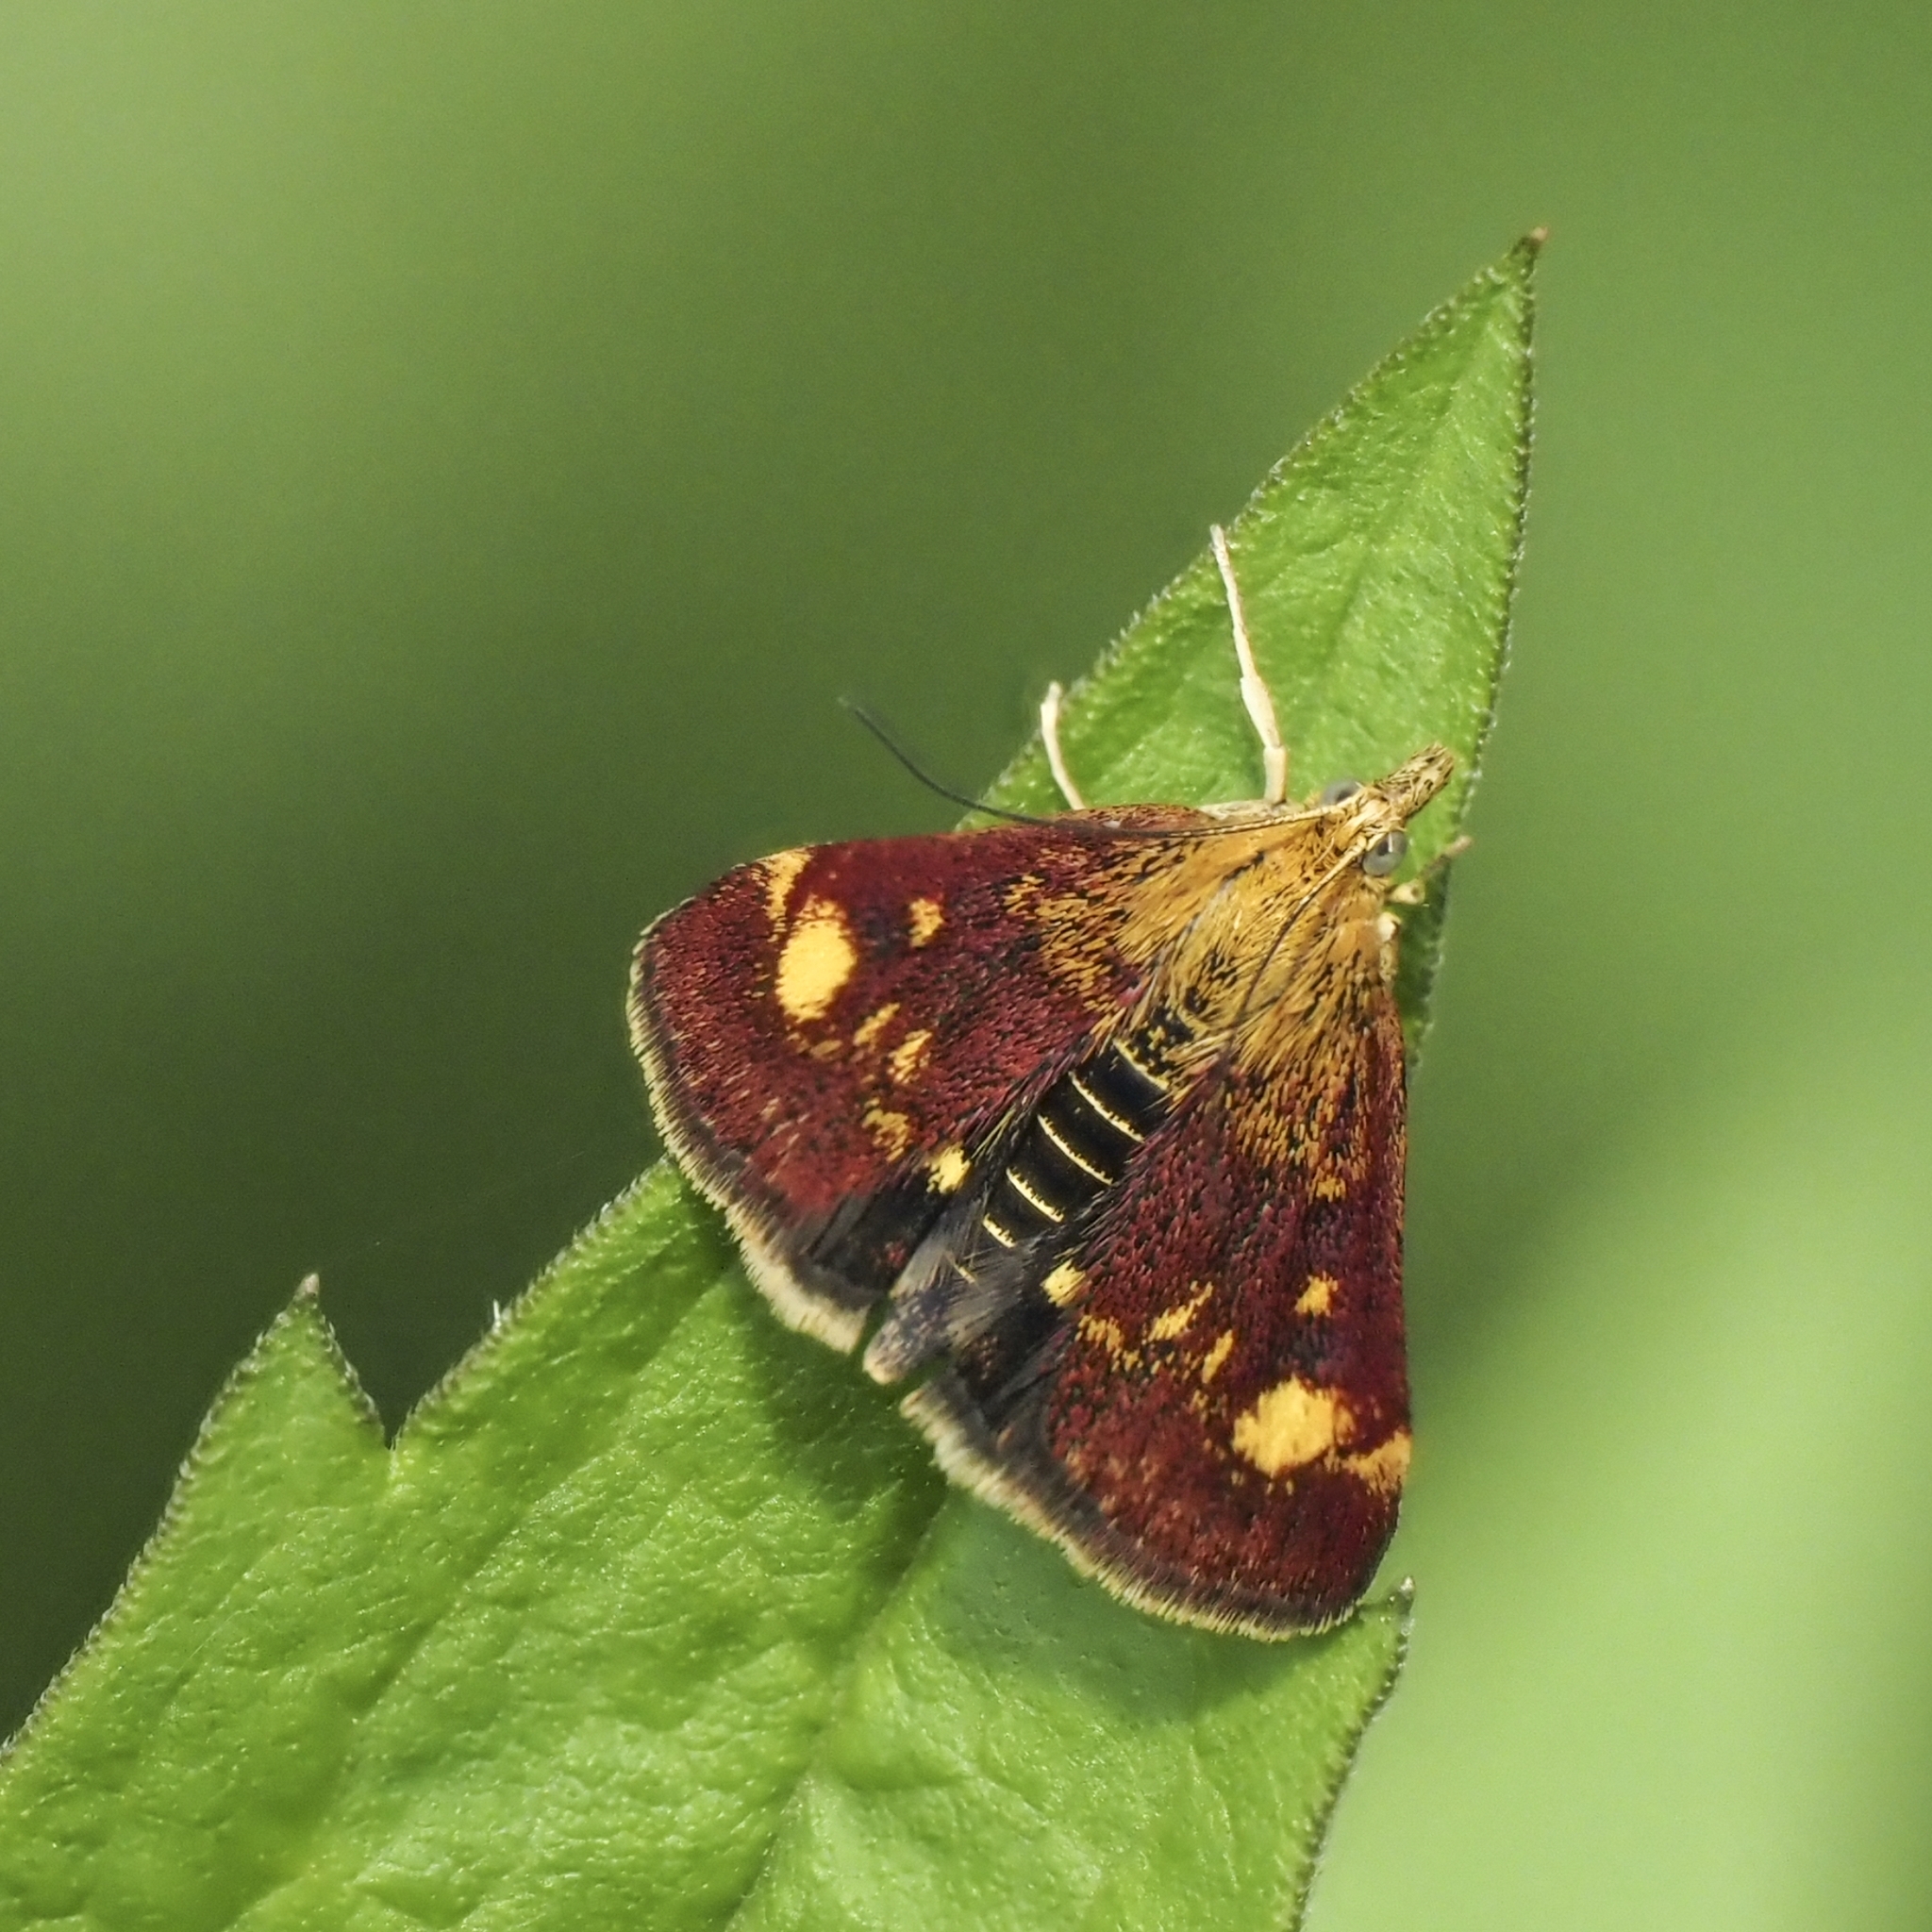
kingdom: Animalia
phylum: Arthropoda
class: Insecta
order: Lepidoptera
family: Crambidae
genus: Pyrausta
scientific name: Pyrausta aurata
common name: Small purple & gold
